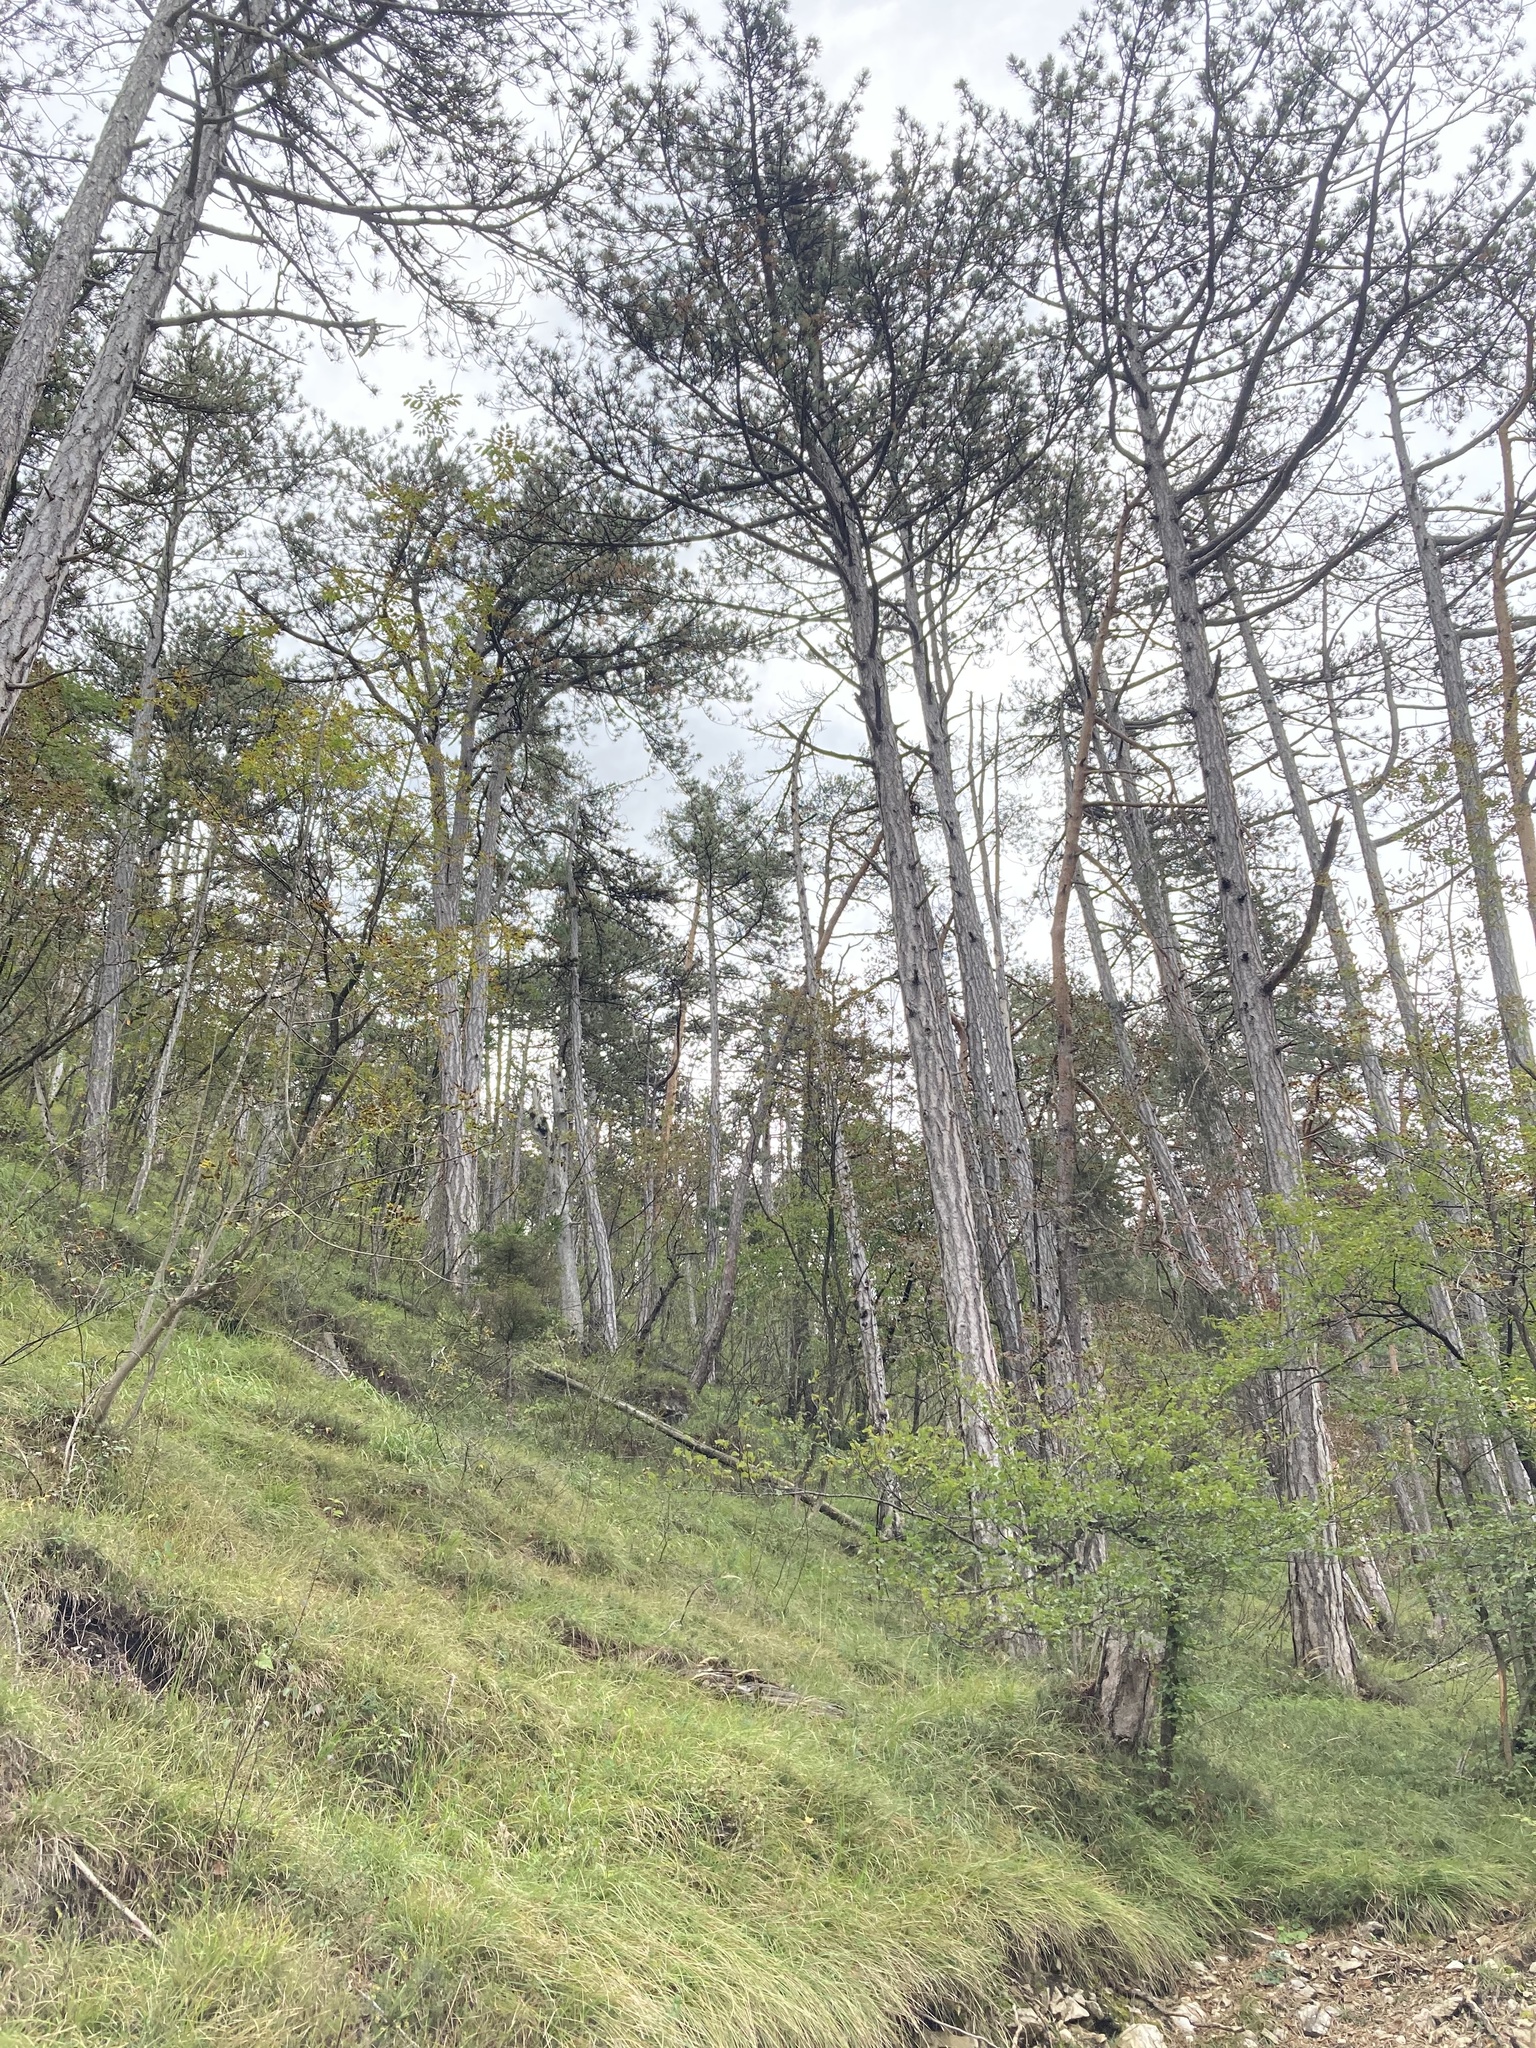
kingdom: Plantae
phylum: Tracheophyta
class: Pinopsida
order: Pinales
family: Pinaceae
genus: Pinus
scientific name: Pinus nigra
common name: Austrian pine
